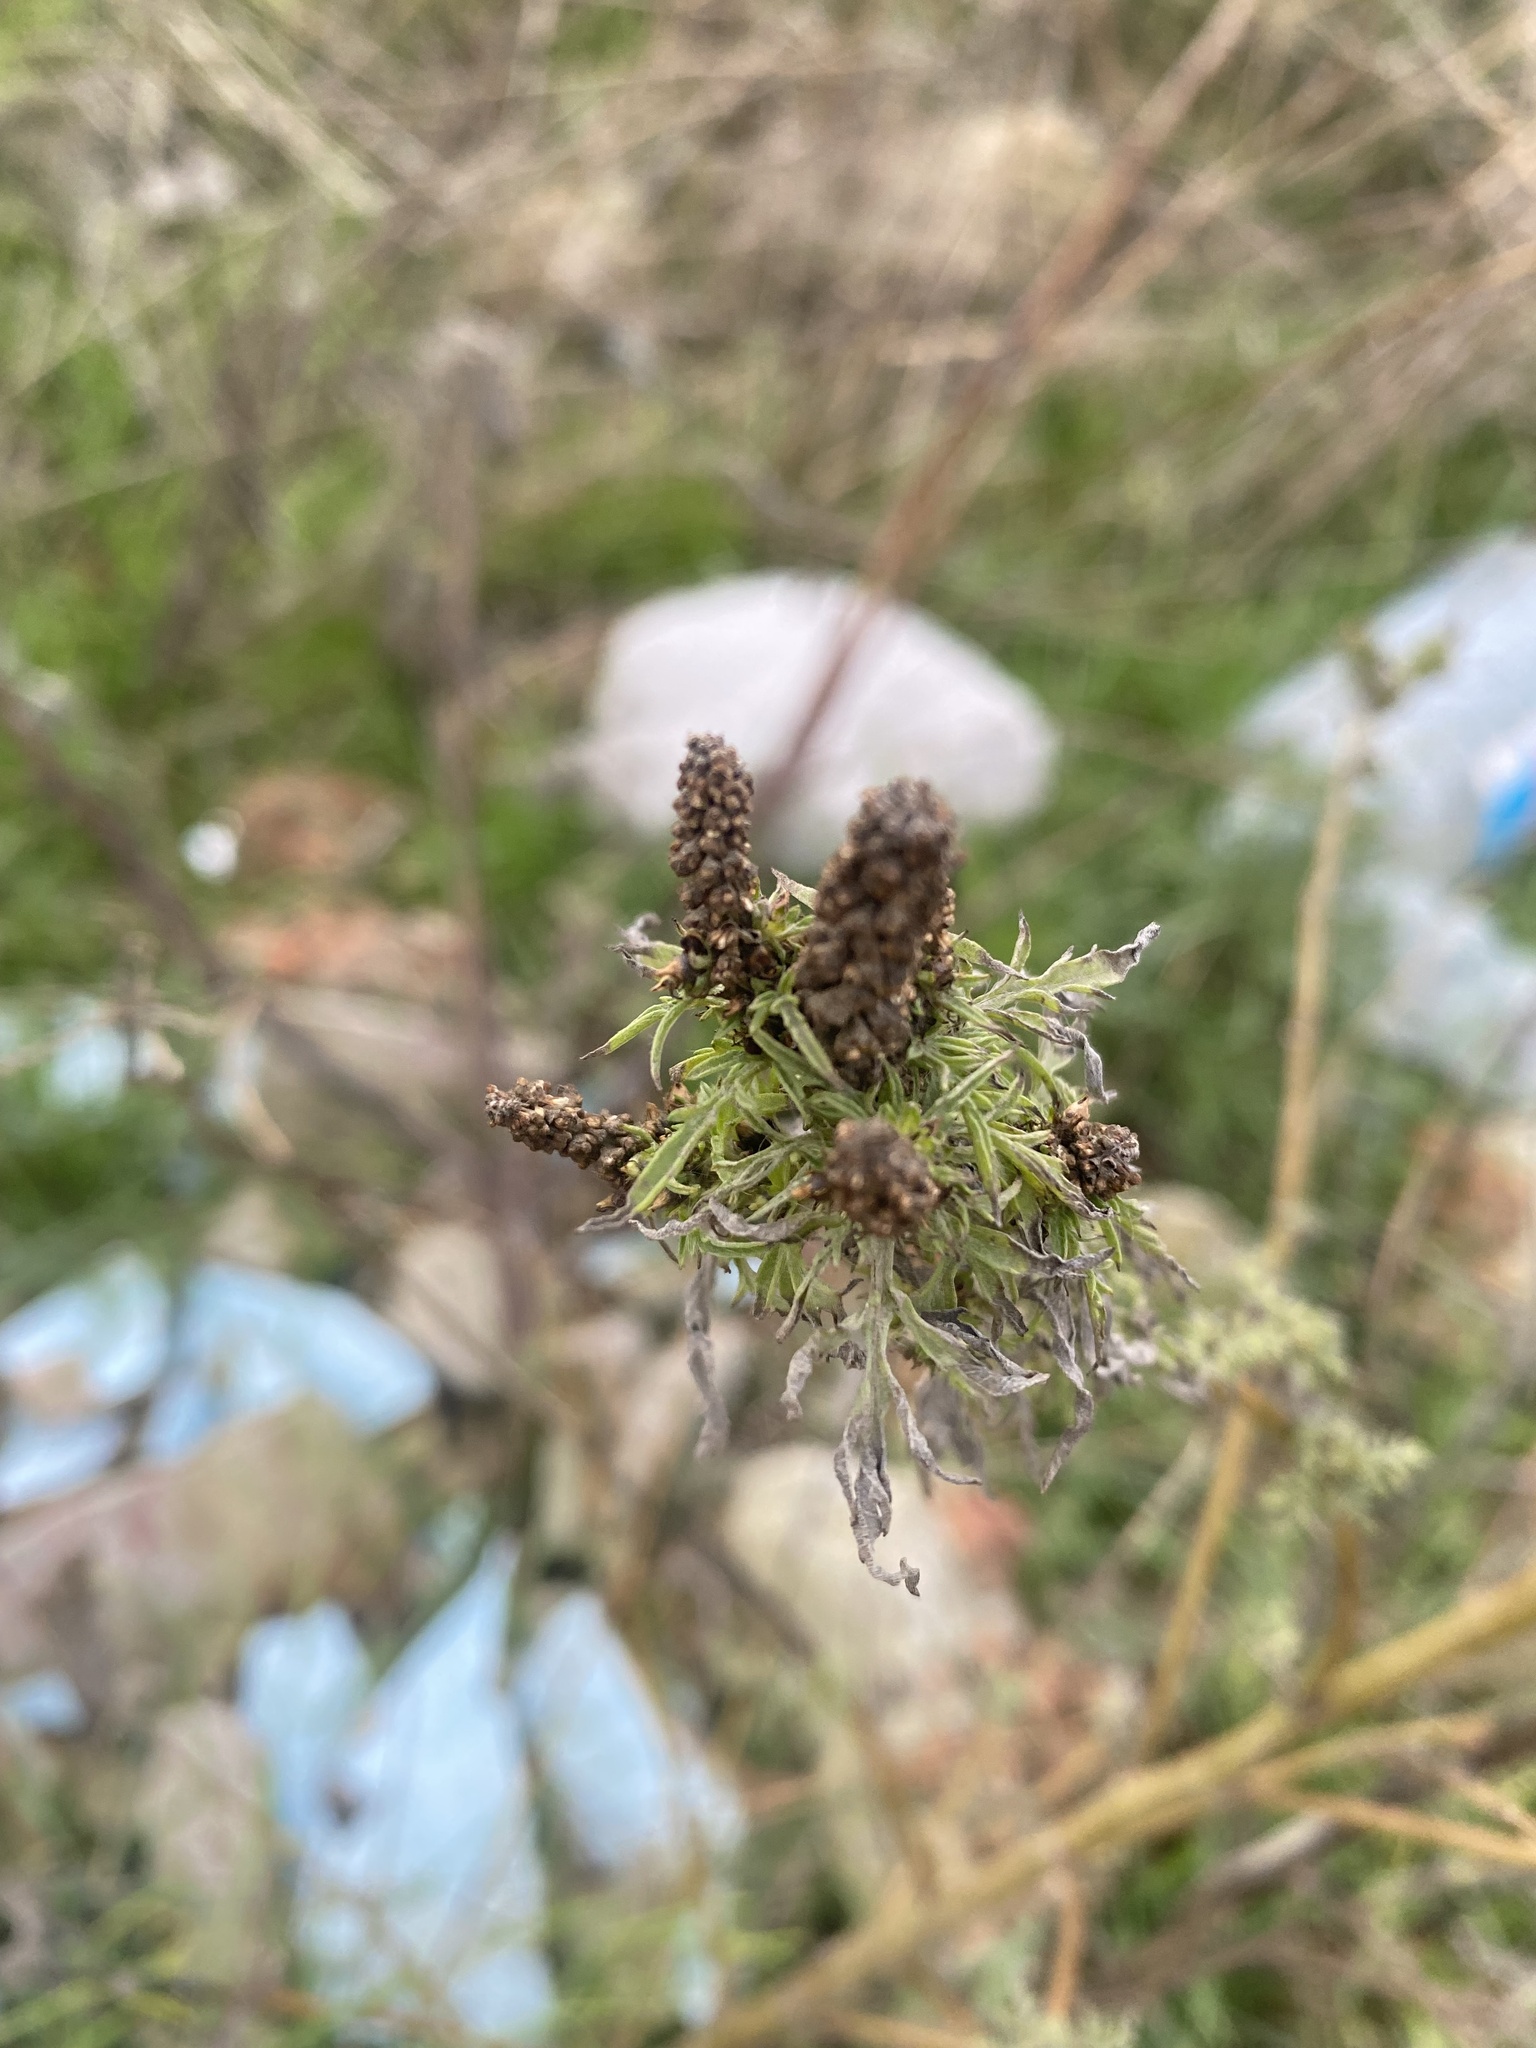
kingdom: Plantae
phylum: Tracheophyta
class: Magnoliopsida
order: Asterales
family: Asteraceae
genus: Ambrosia
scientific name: Ambrosia artemisiifolia
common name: Annual ragweed
